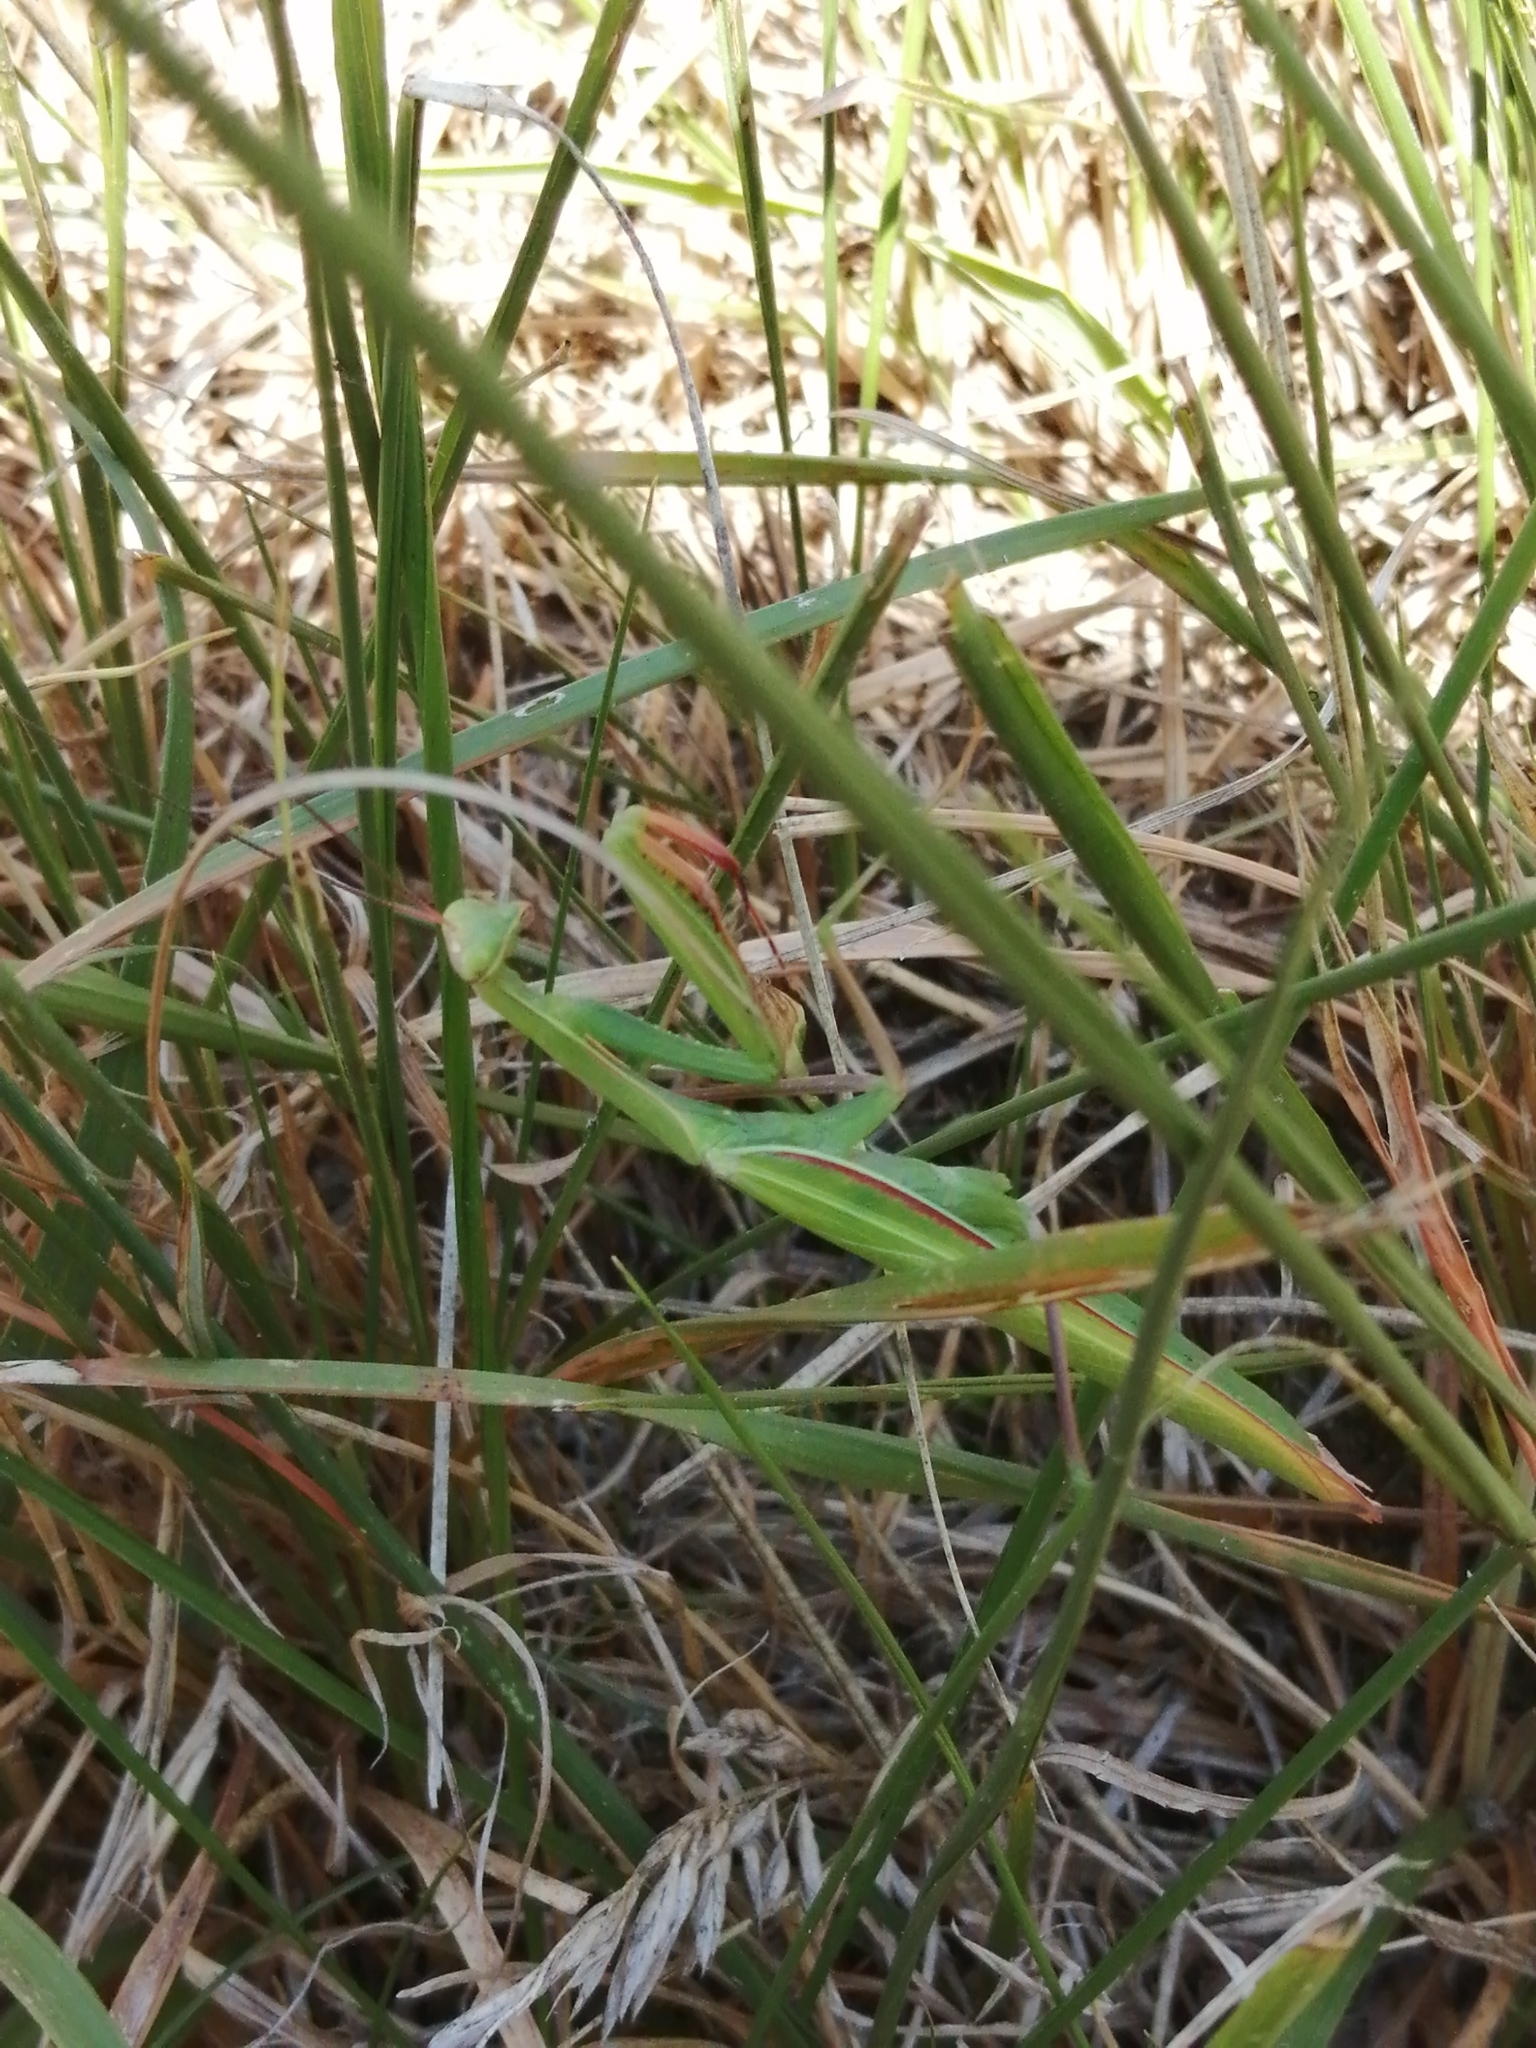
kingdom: Animalia
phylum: Arthropoda
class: Insecta
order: Mantodea
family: Mantidae
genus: Mantis
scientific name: Mantis religiosa
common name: Praying mantis
